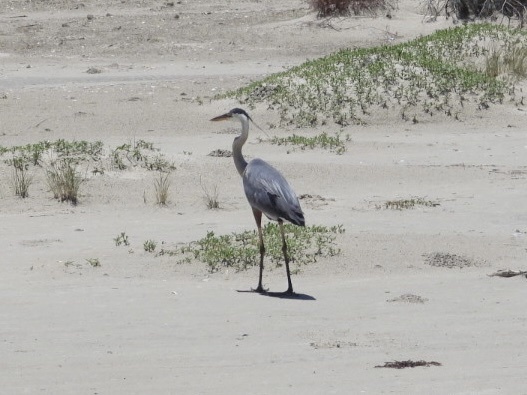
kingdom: Animalia
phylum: Chordata
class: Aves
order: Pelecaniformes
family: Ardeidae
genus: Ardea
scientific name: Ardea herodias
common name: Great blue heron
